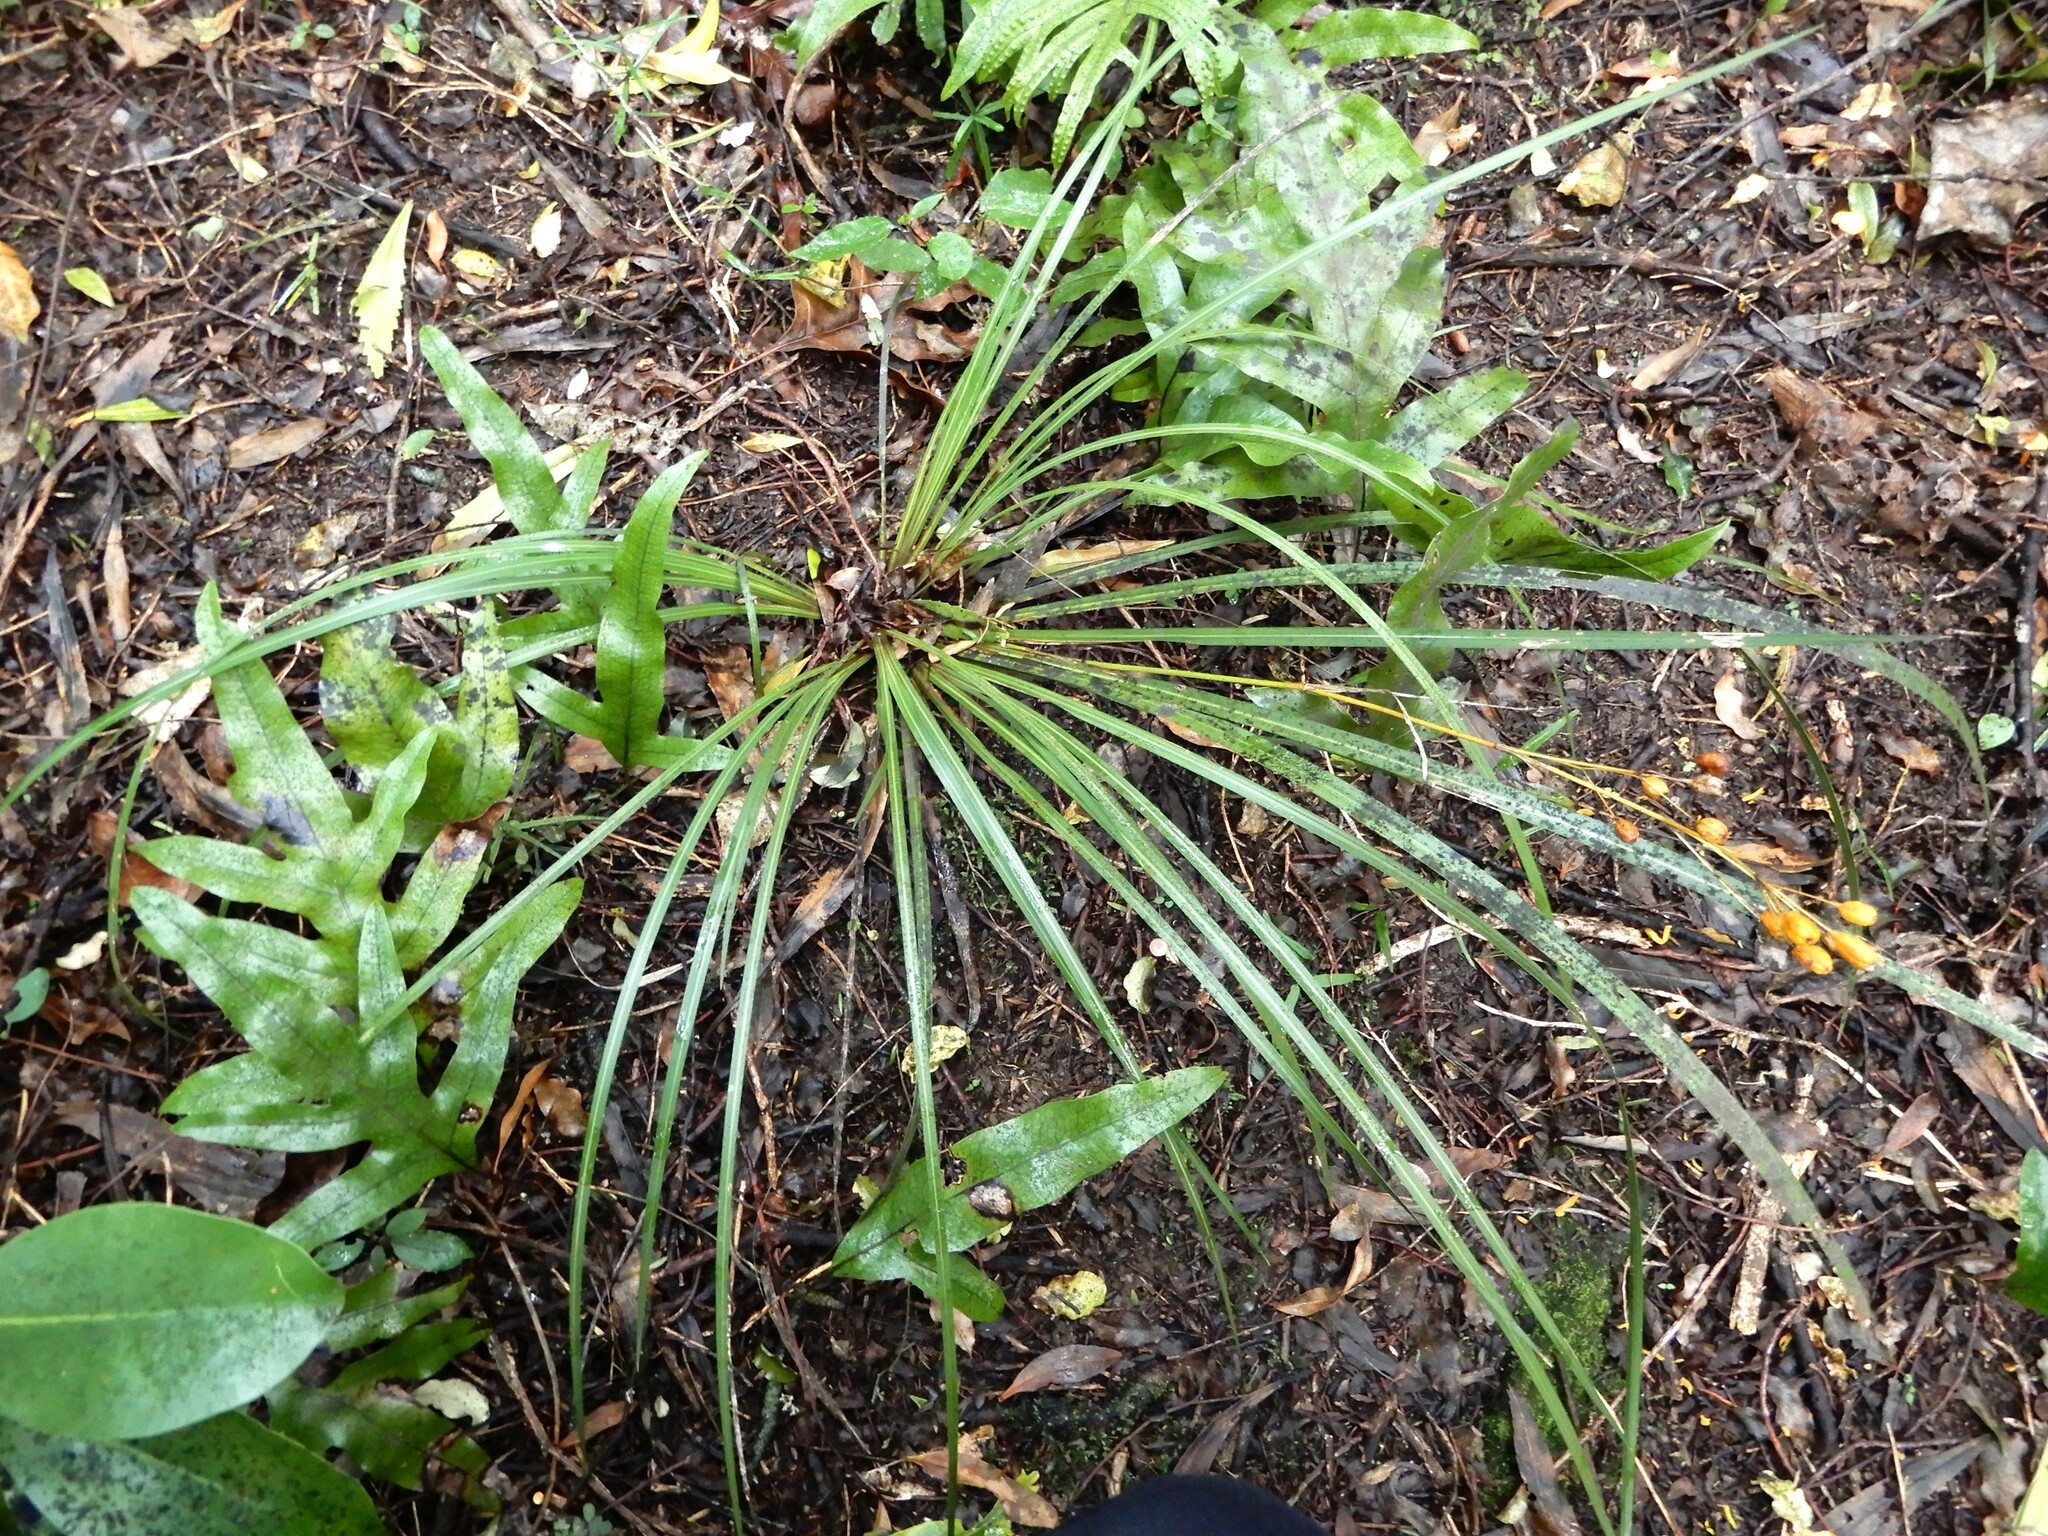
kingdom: Plantae
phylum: Tracheophyta
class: Liliopsida
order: Asparagales
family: Iridaceae
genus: Libertia
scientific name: Libertia ixioides
